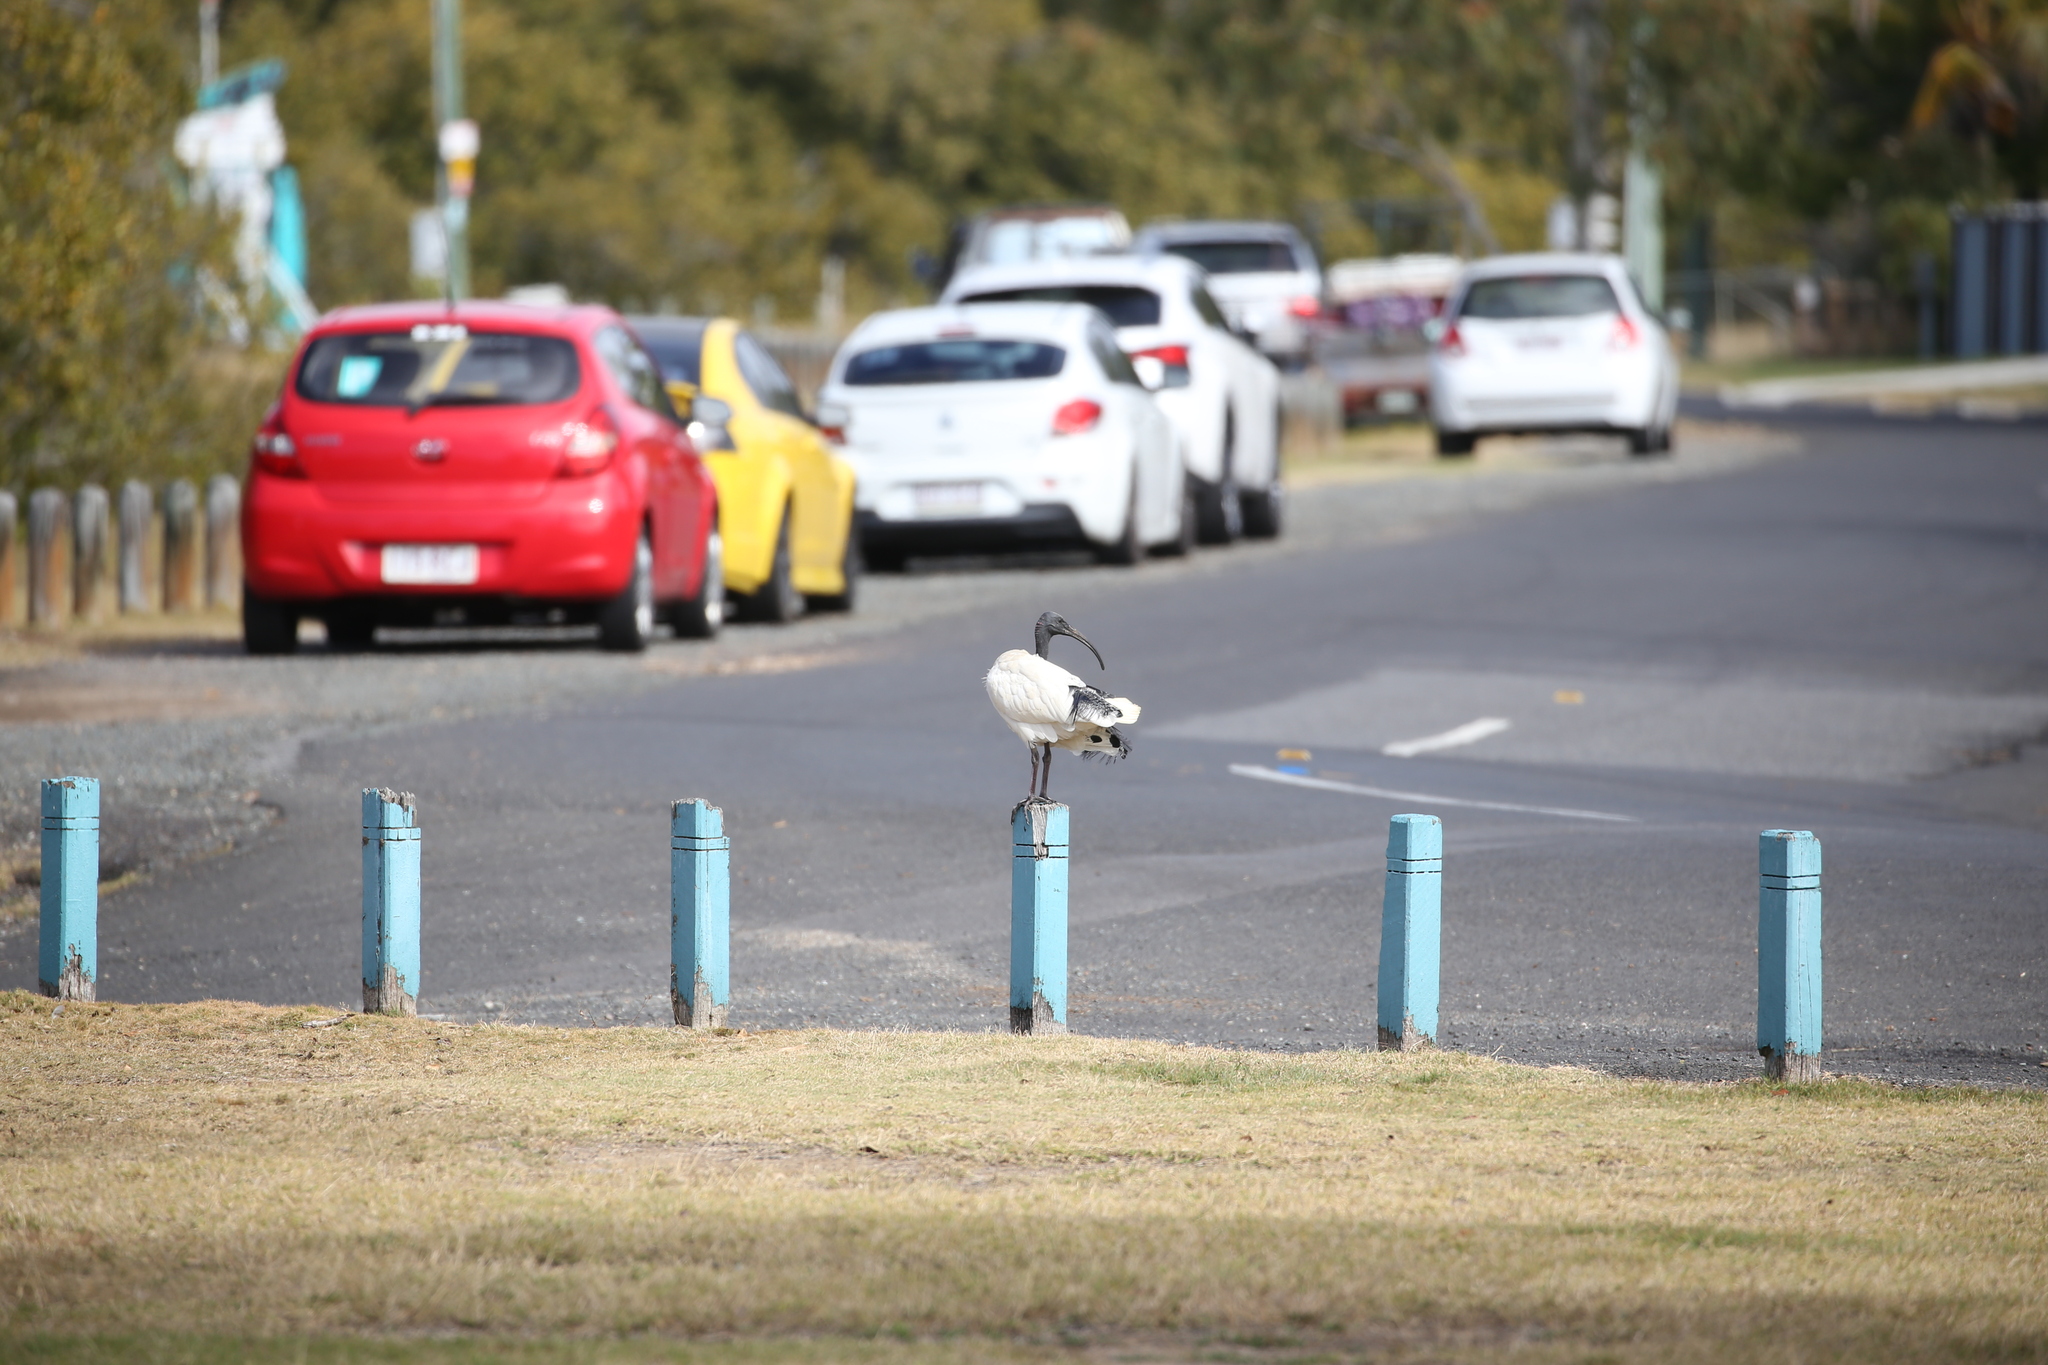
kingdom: Animalia
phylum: Chordata
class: Aves
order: Pelecaniformes
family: Threskiornithidae
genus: Threskiornis
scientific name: Threskiornis molucca
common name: Australian white ibis
